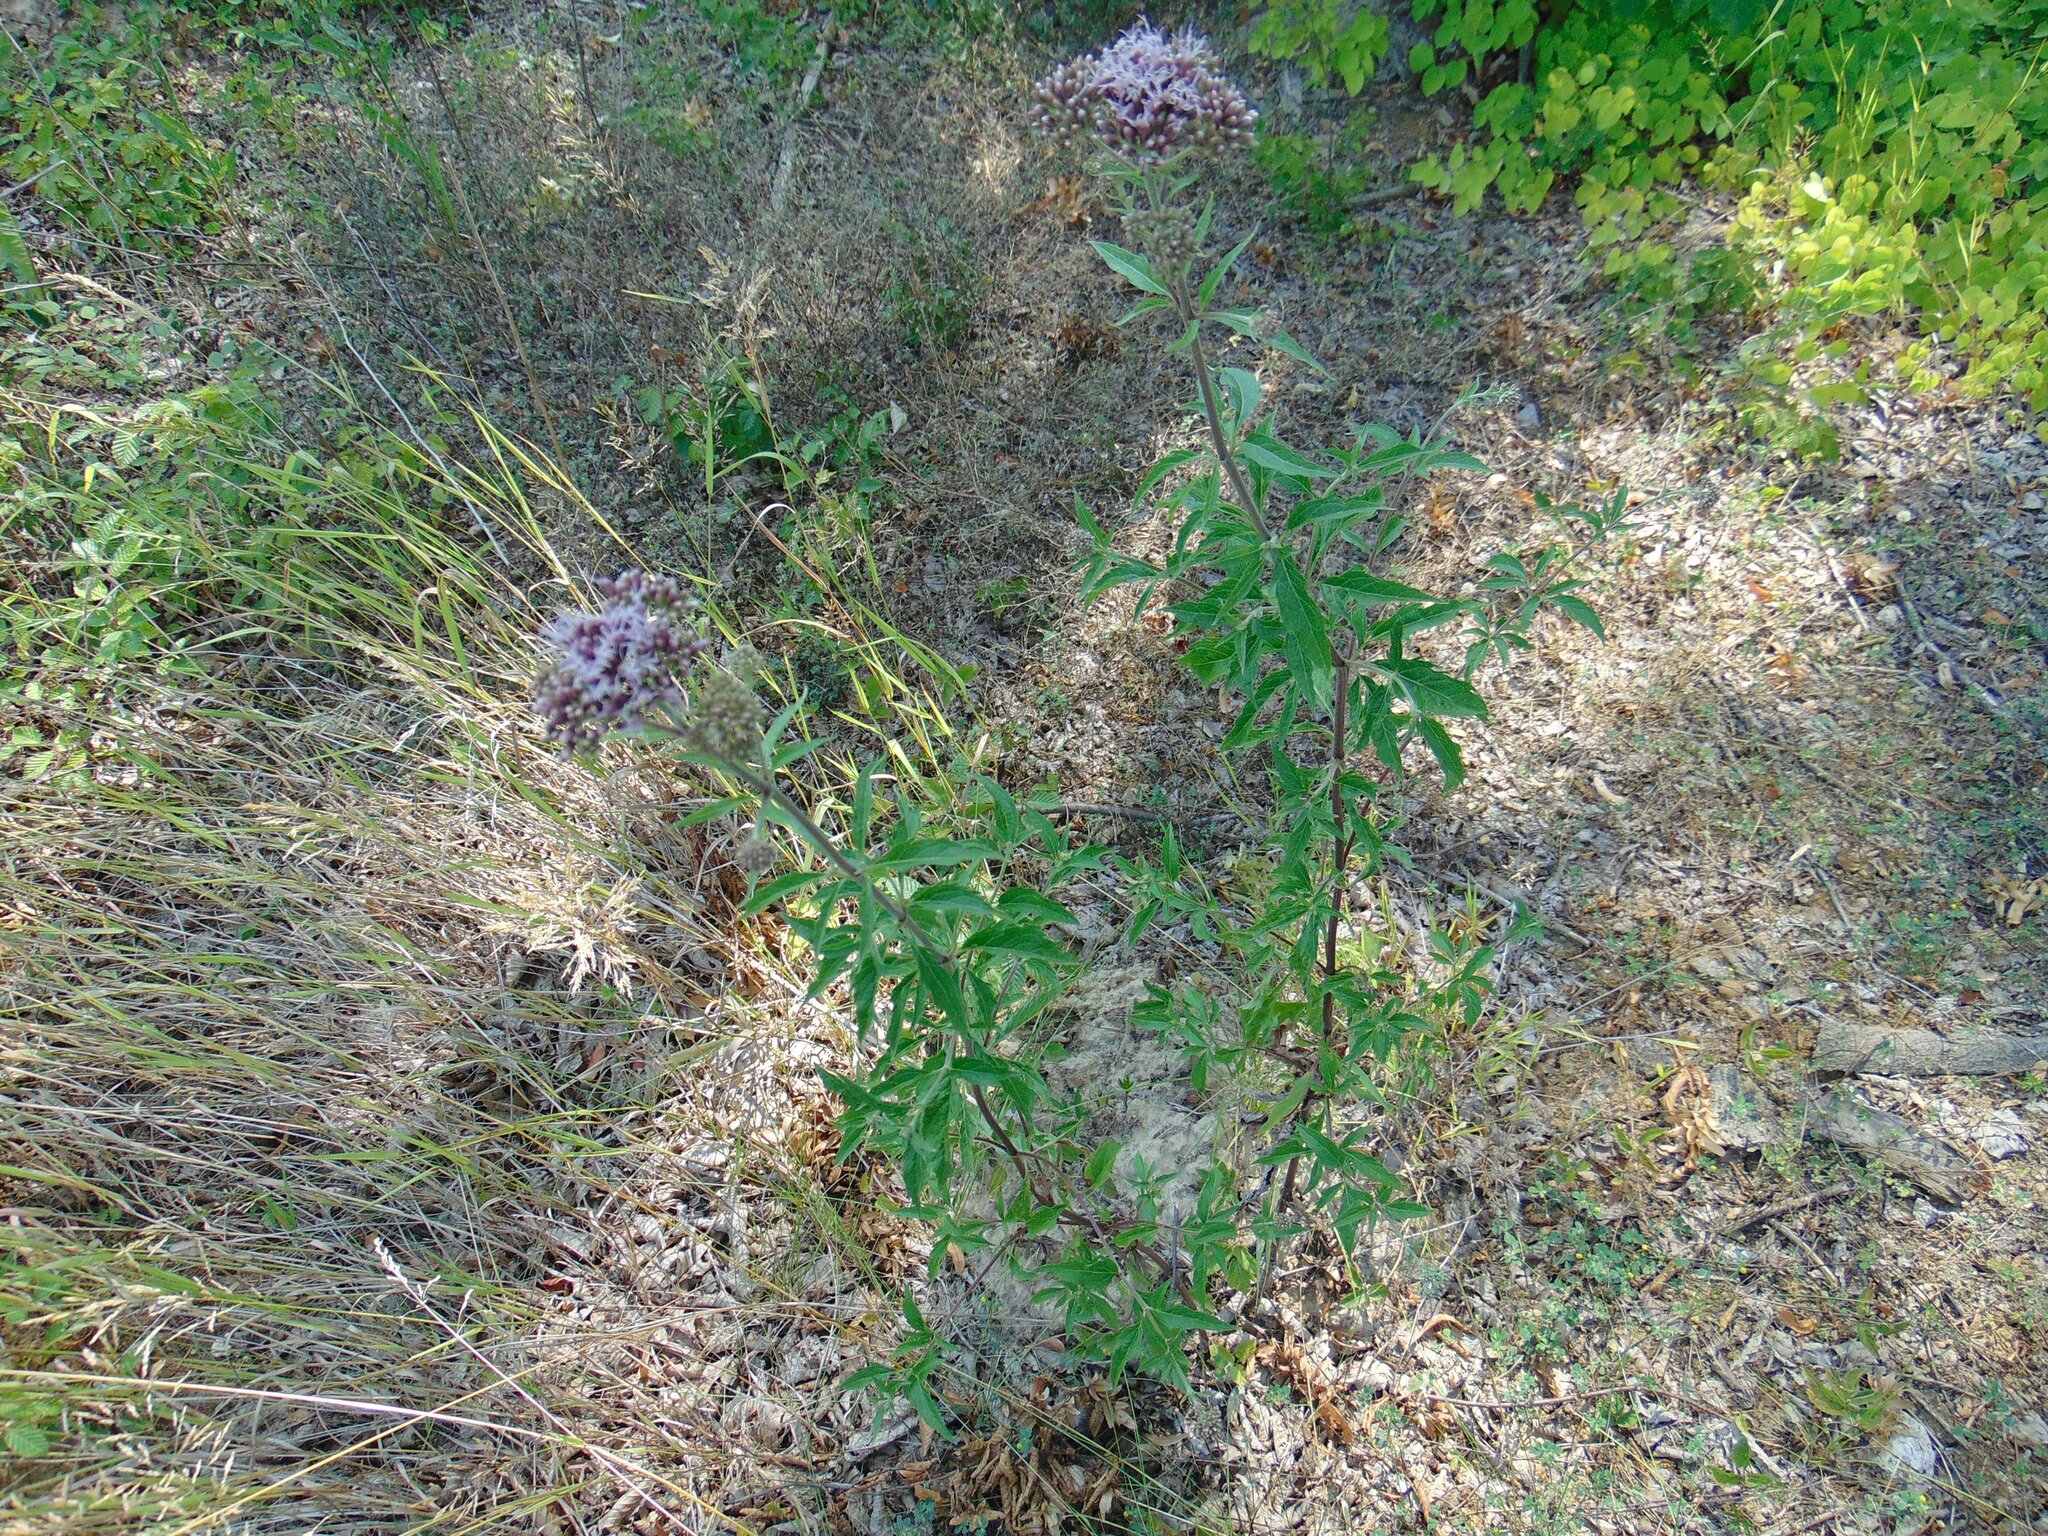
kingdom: Plantae
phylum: Tracheophyta
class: Magnoliopsida
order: Asterales
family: Asteraceae
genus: Eupatorium
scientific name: Eupatorium cannabinum
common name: Hemp-agrimony
